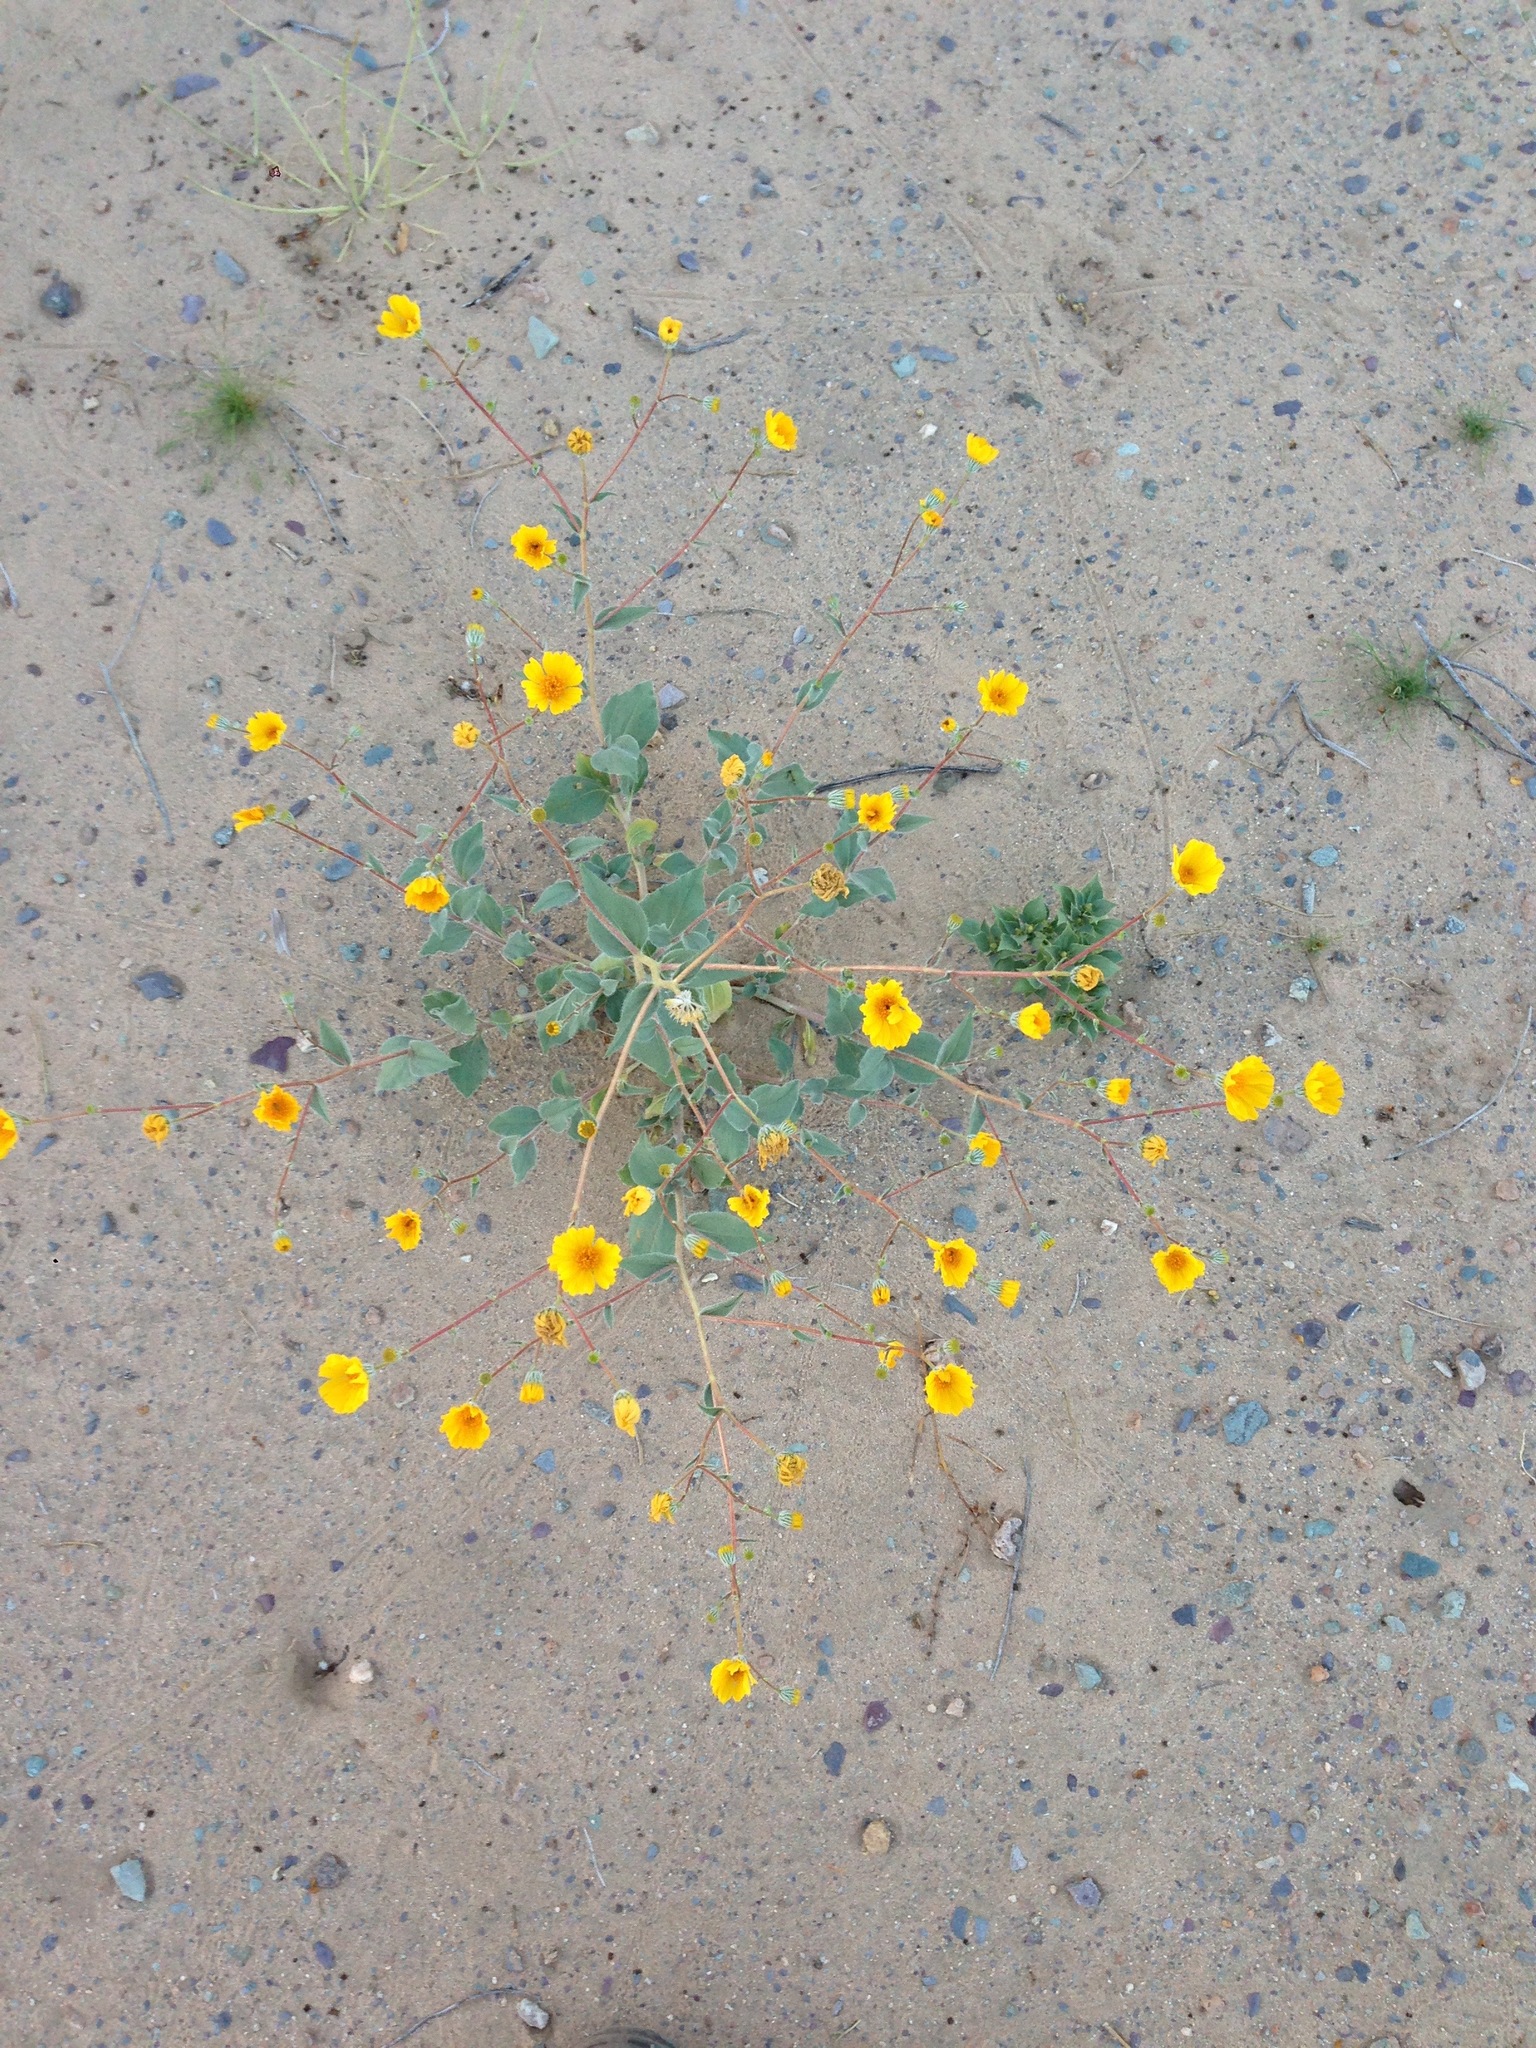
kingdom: Plantae
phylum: Tracheophyta
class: Magnoliopsida
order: Asterales
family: Asteraceae
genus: Geraea
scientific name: Geraea canescens
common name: Desert-gold
